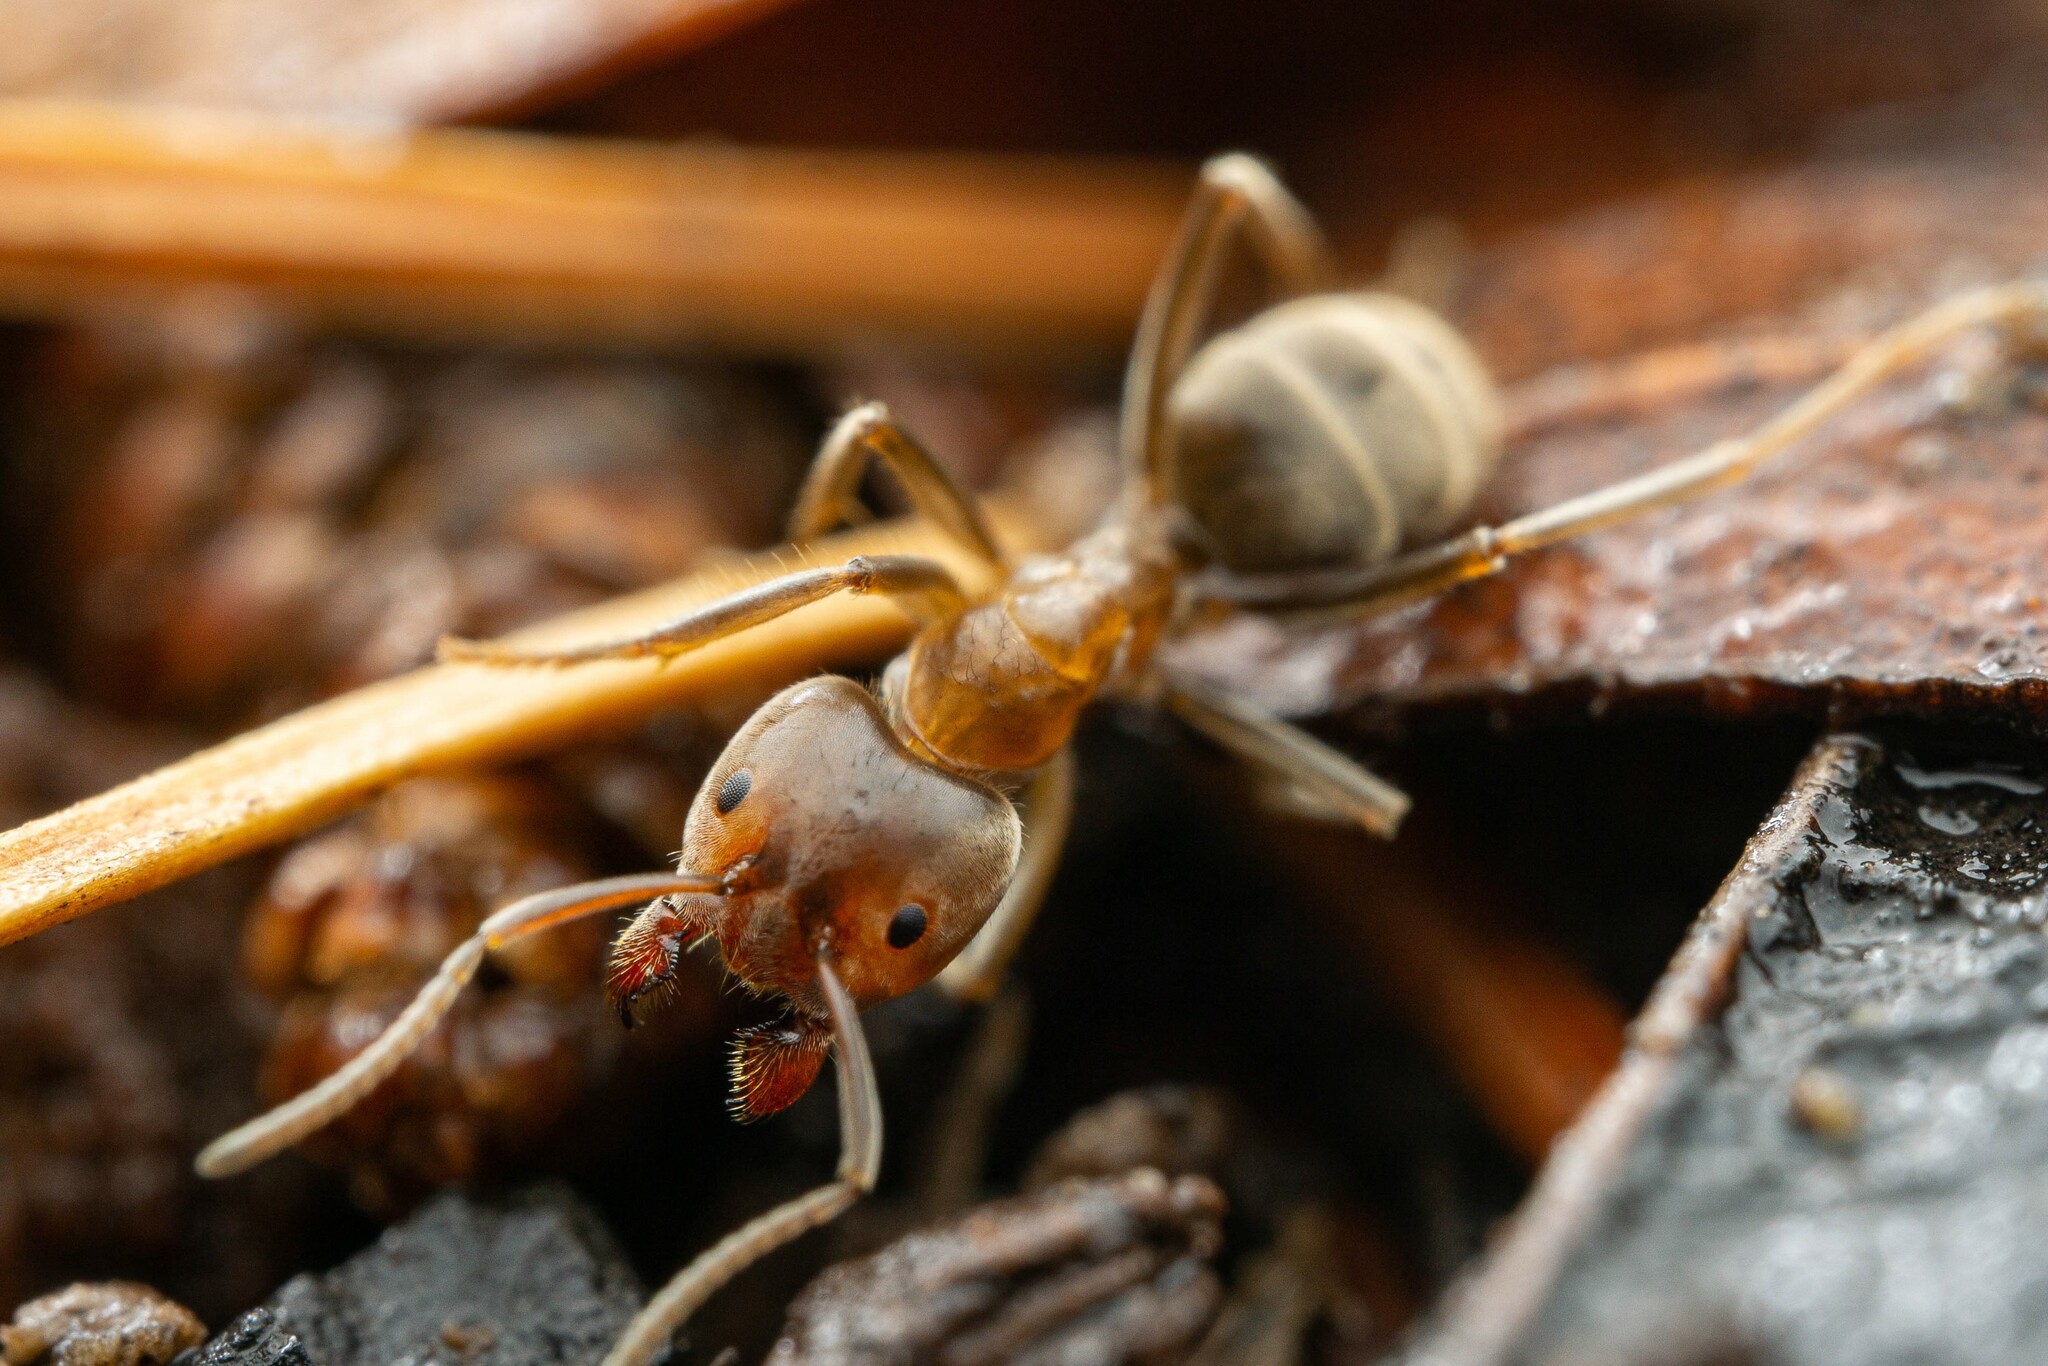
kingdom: Animalia
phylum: Arthropoda
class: Insecta
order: Hymenoptera
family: Formicidae
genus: Liometopum
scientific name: Liometopum apiculatum
